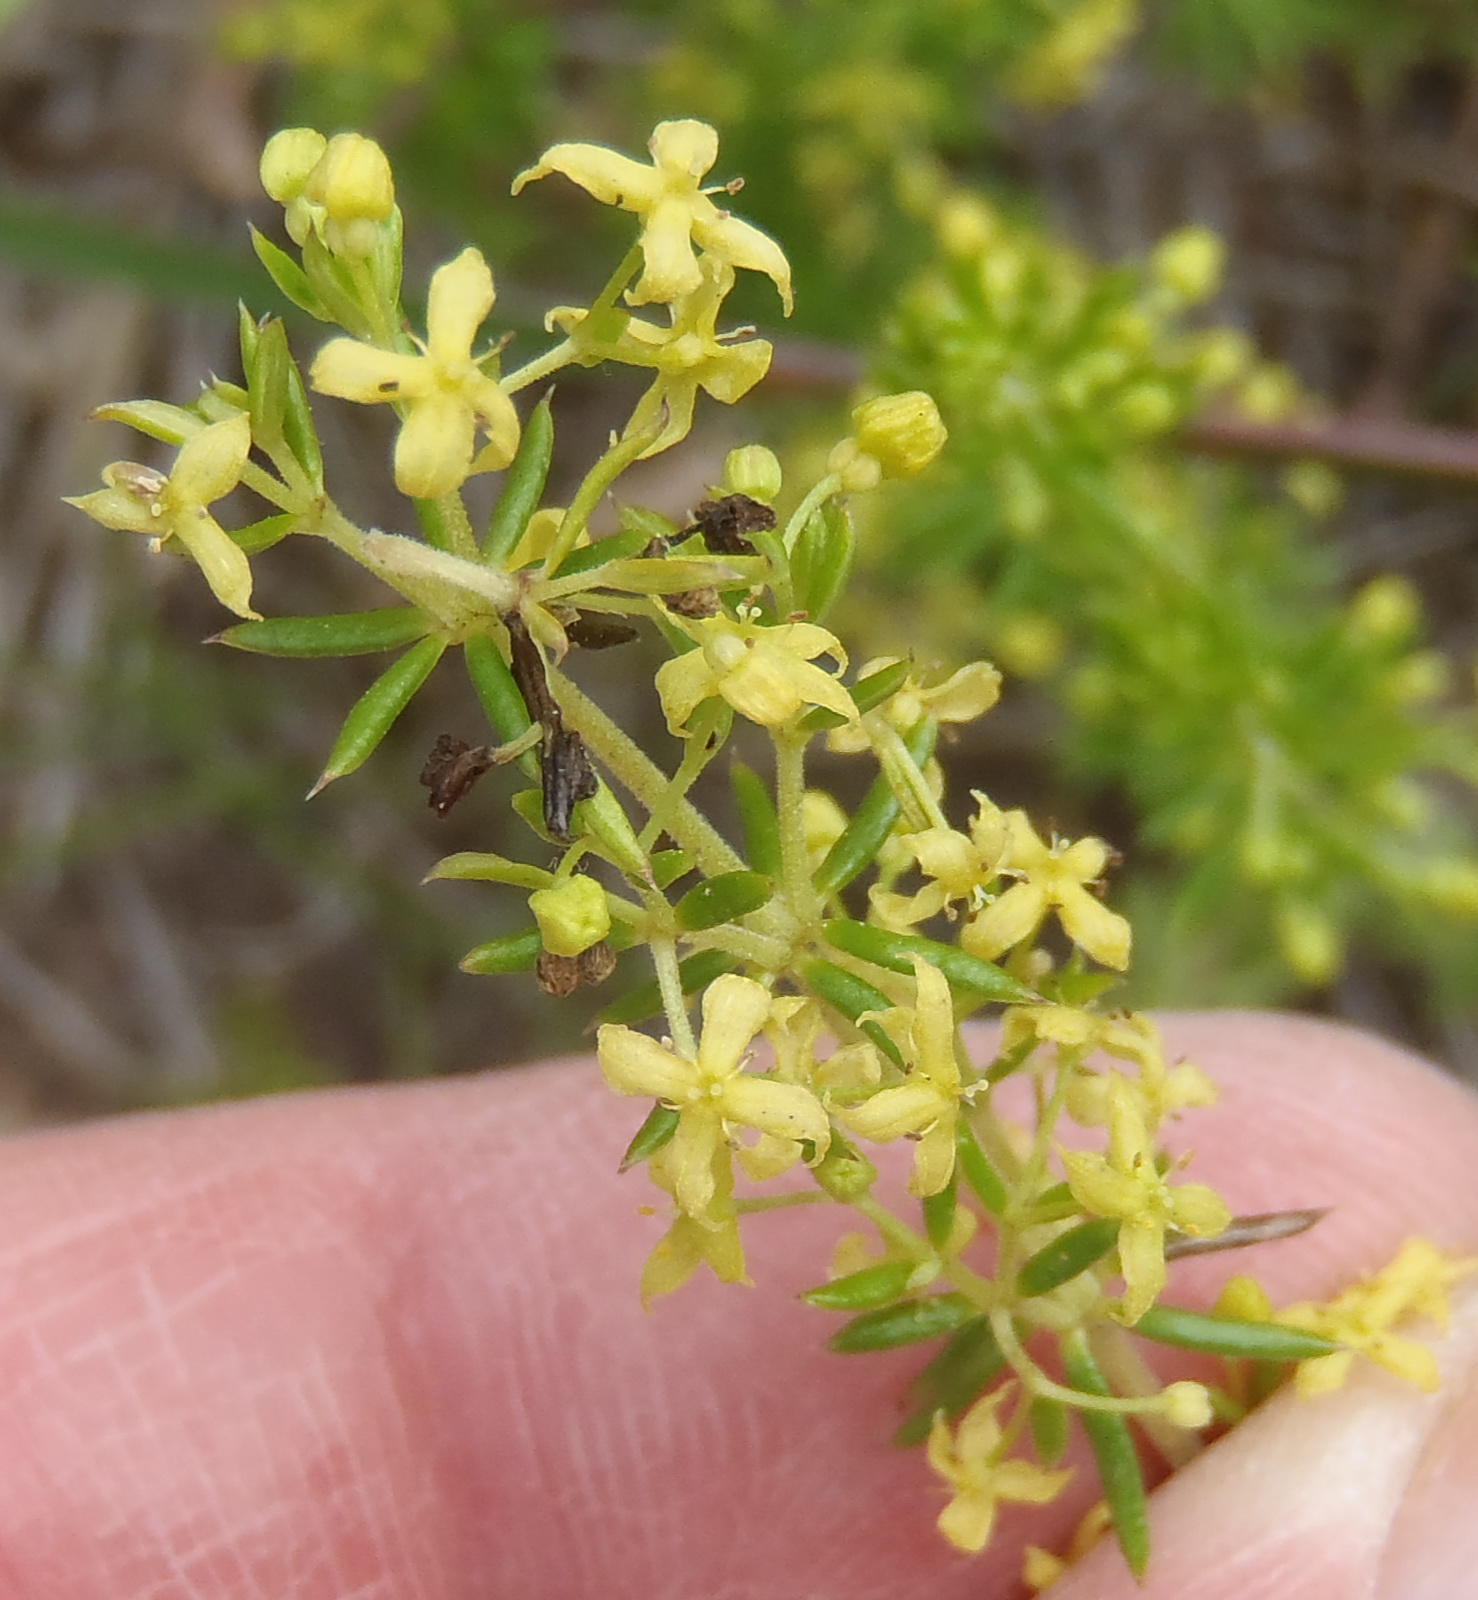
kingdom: Plantae
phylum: Tracheophyta
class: Magnoliopsida
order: Gentianales
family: Rubiaceae
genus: Galium
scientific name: Galium capense
